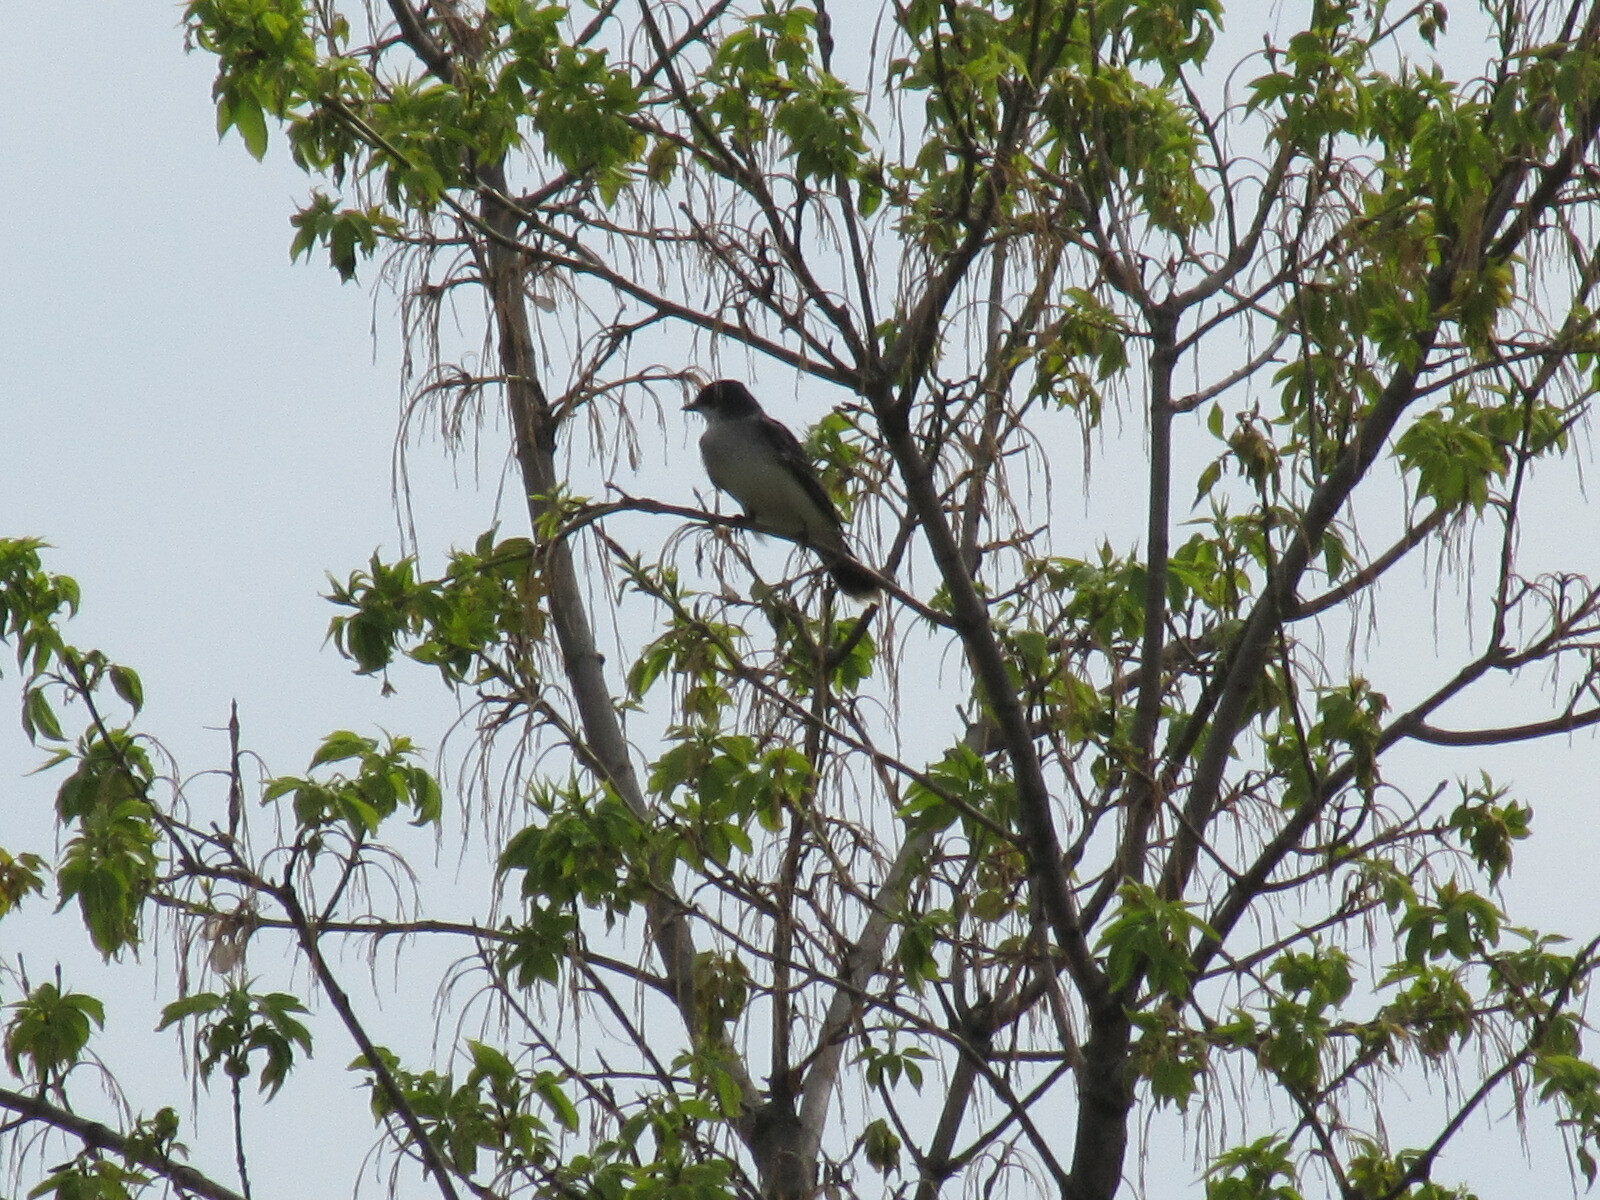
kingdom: Animalia
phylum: Chordata
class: Aves
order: Passeriformes
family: Tyrannidae
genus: Tyrannus
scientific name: Tyrannus tyrannus
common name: Eastern kingbird
